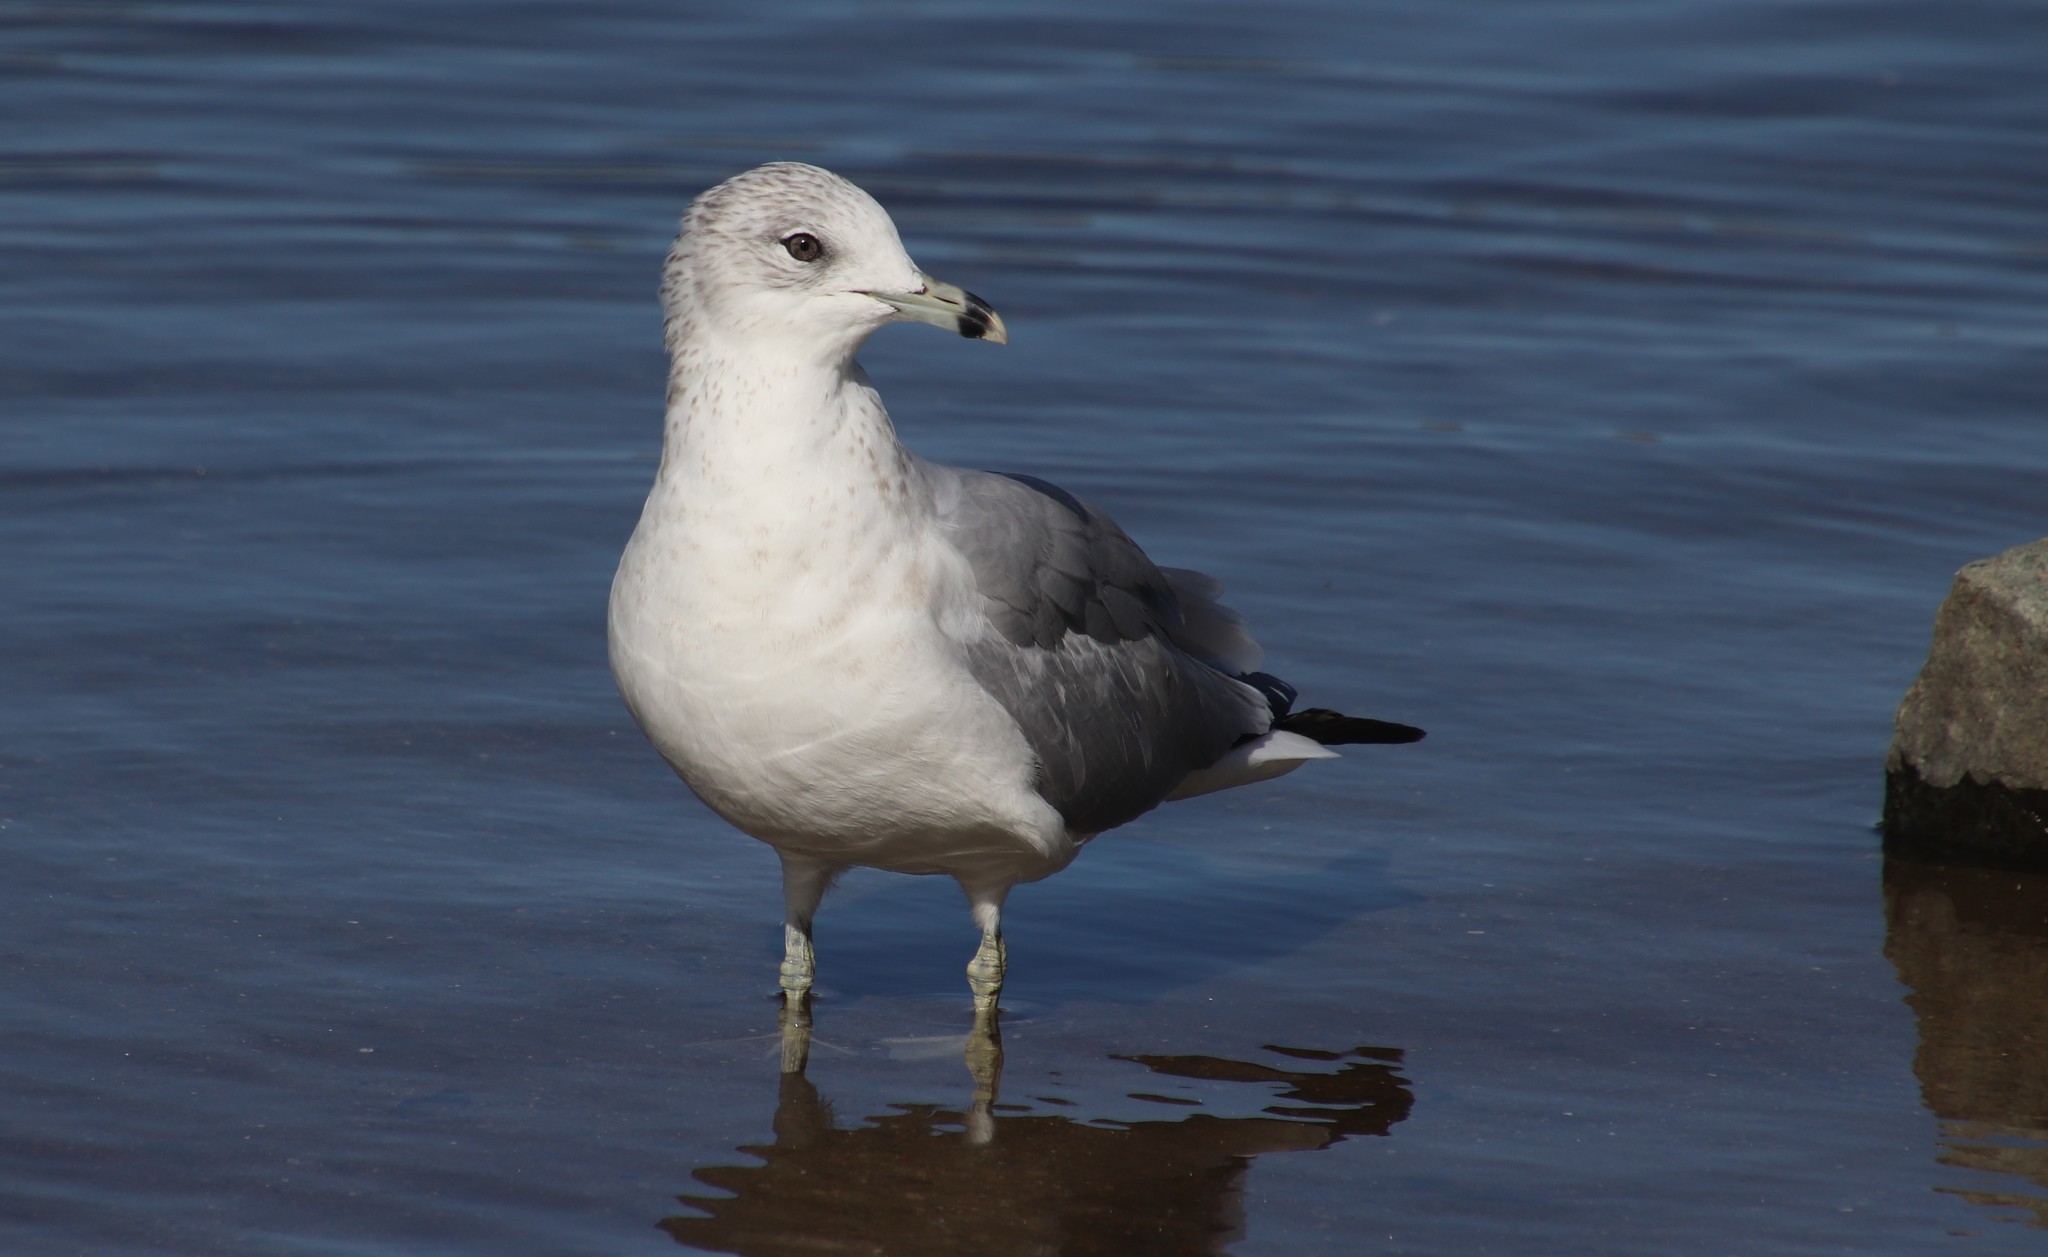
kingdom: Animalia
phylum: Chordata
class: Aves
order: Charadriiformes
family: Laridae
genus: Larus
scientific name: Larus delawarensis
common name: Ring-billed gull
